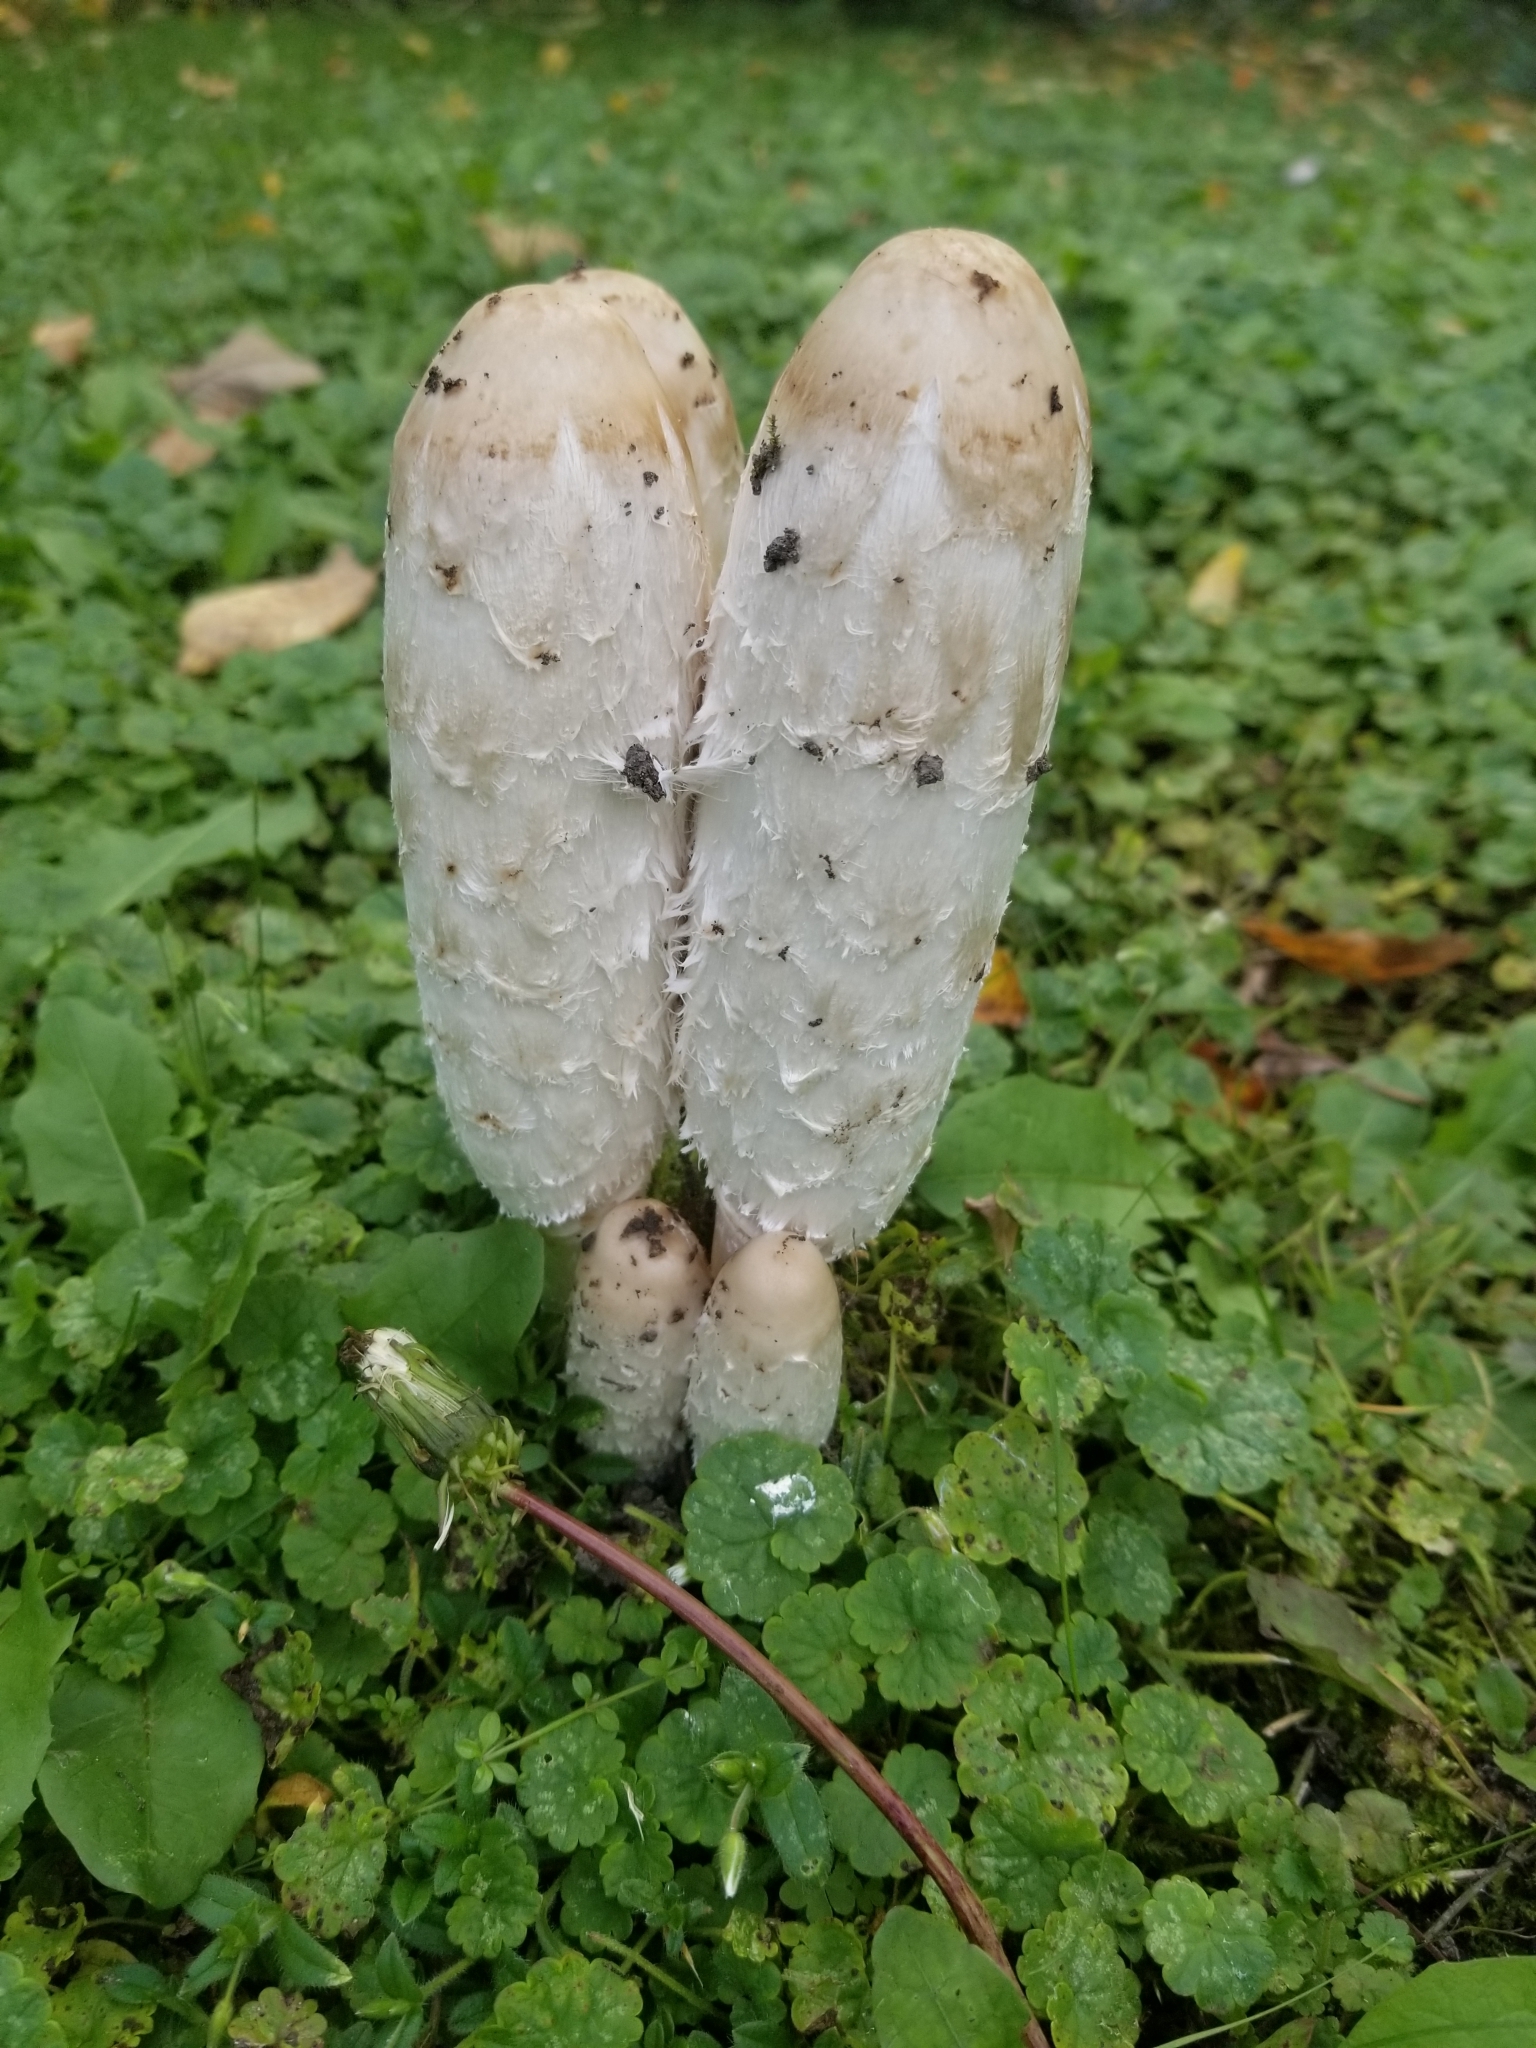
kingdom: Fungi
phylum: Basidiomycota
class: Agaricomycetes
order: Agaricales
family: Agaricaceae
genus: Coprinus
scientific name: Coprinus comatus
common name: Lawyer's wig
